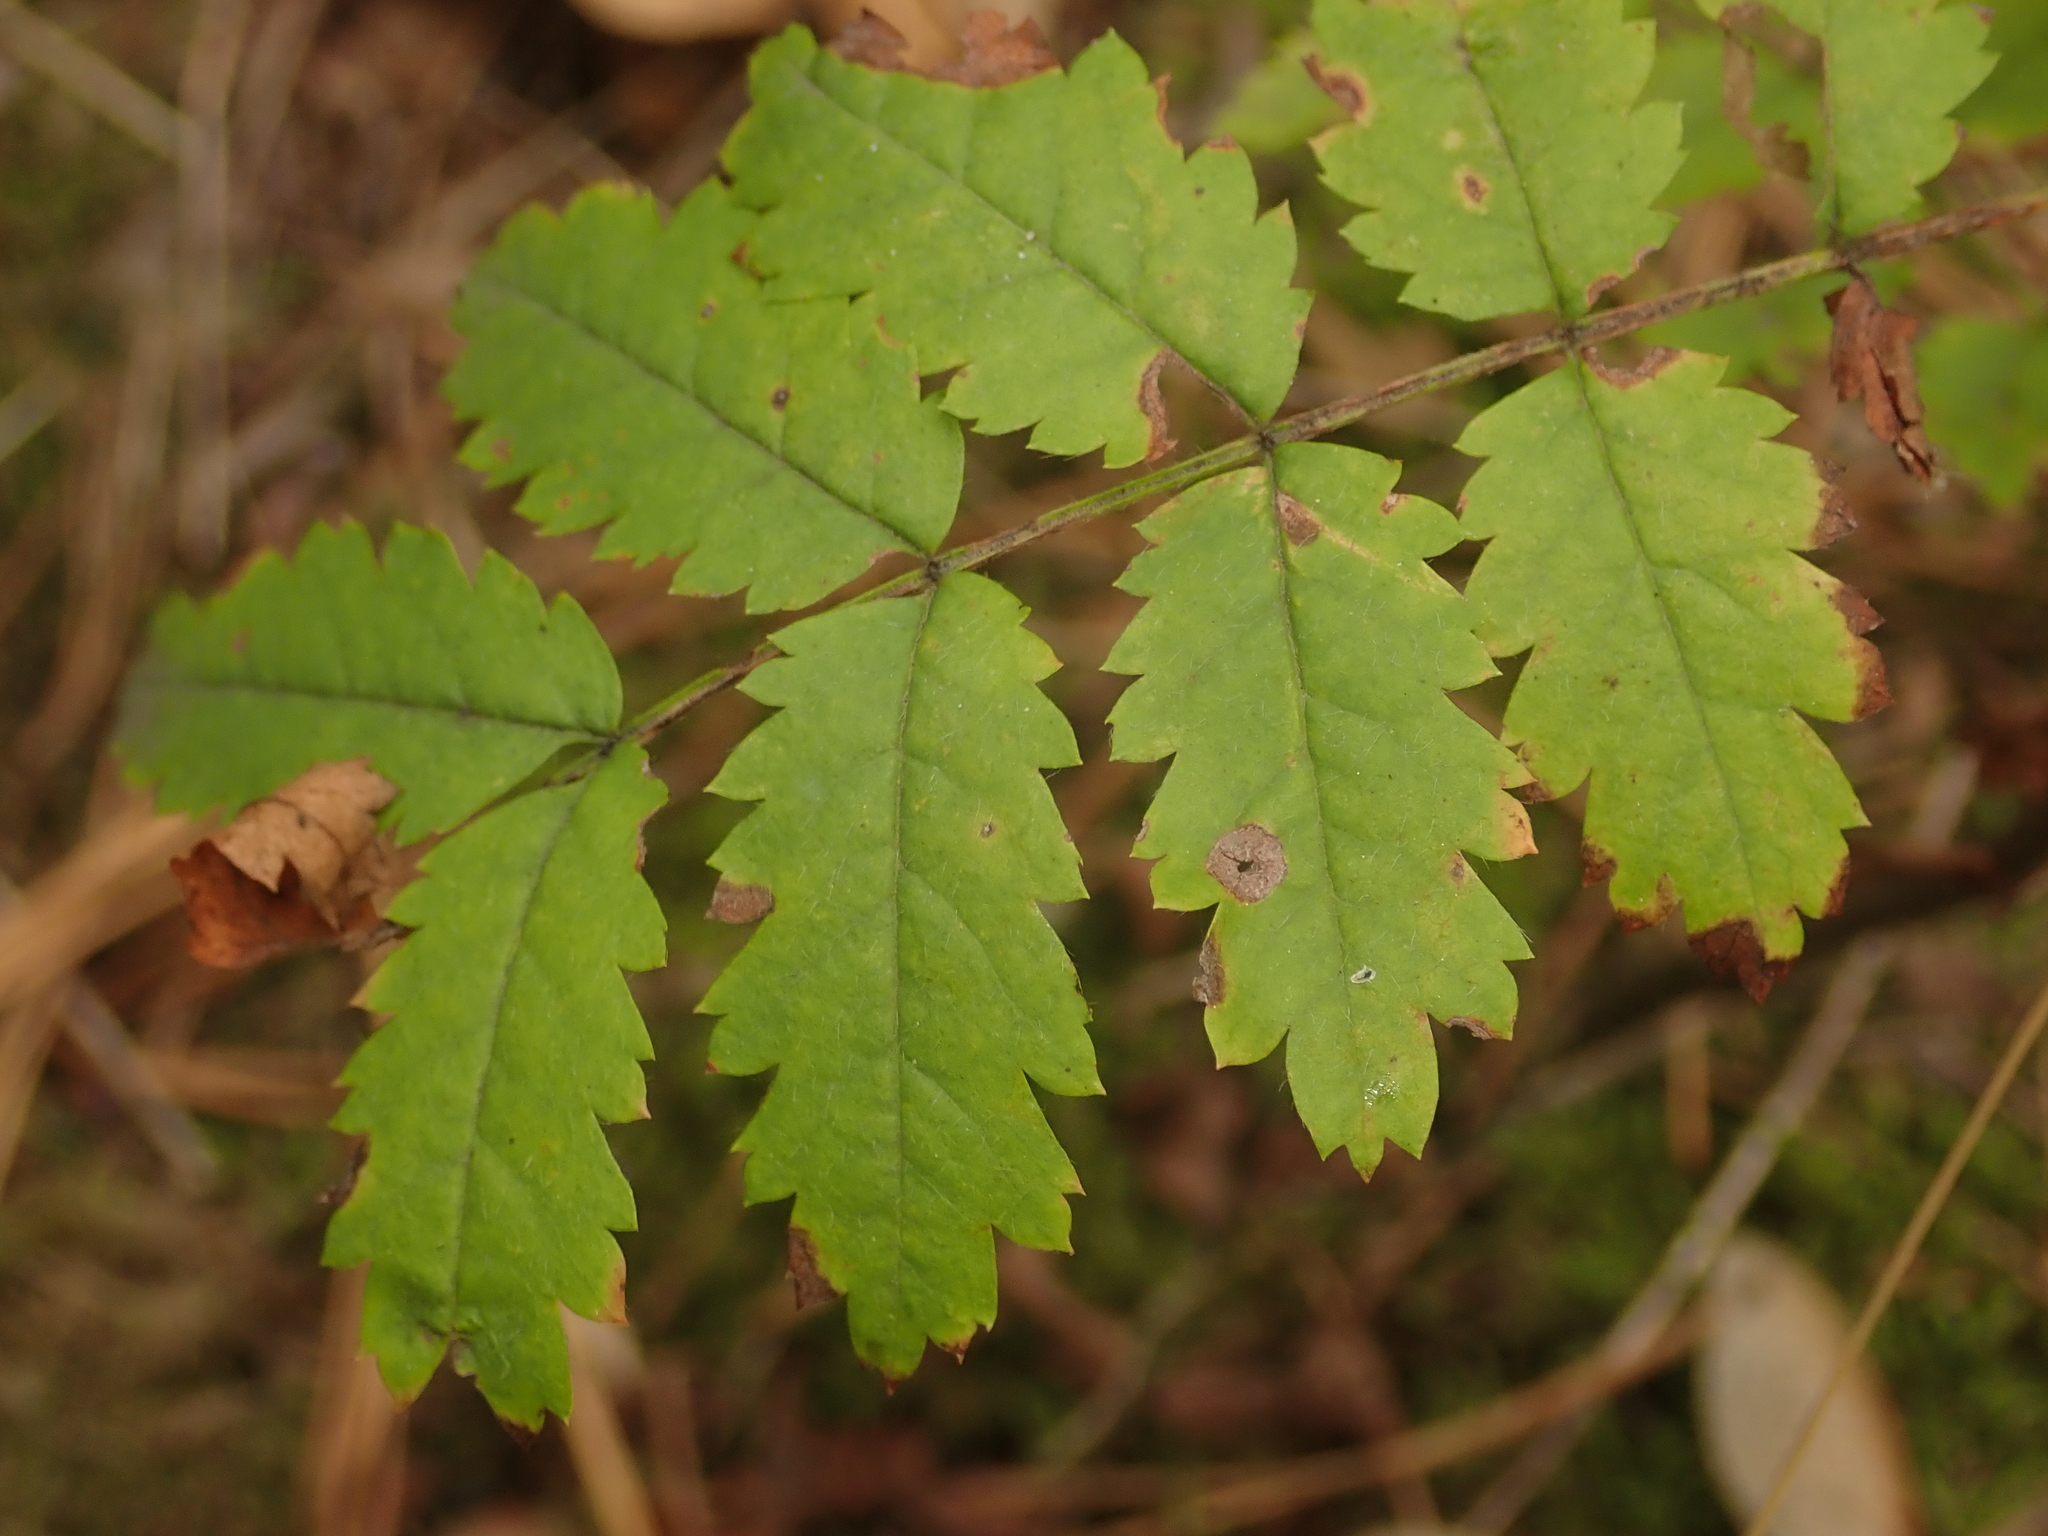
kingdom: Plantae
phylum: Tracheophyta
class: Magnoliopsida
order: Rosales
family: Rosaceae
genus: Sorbus
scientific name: Sorbus aucuparia
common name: Rowan
